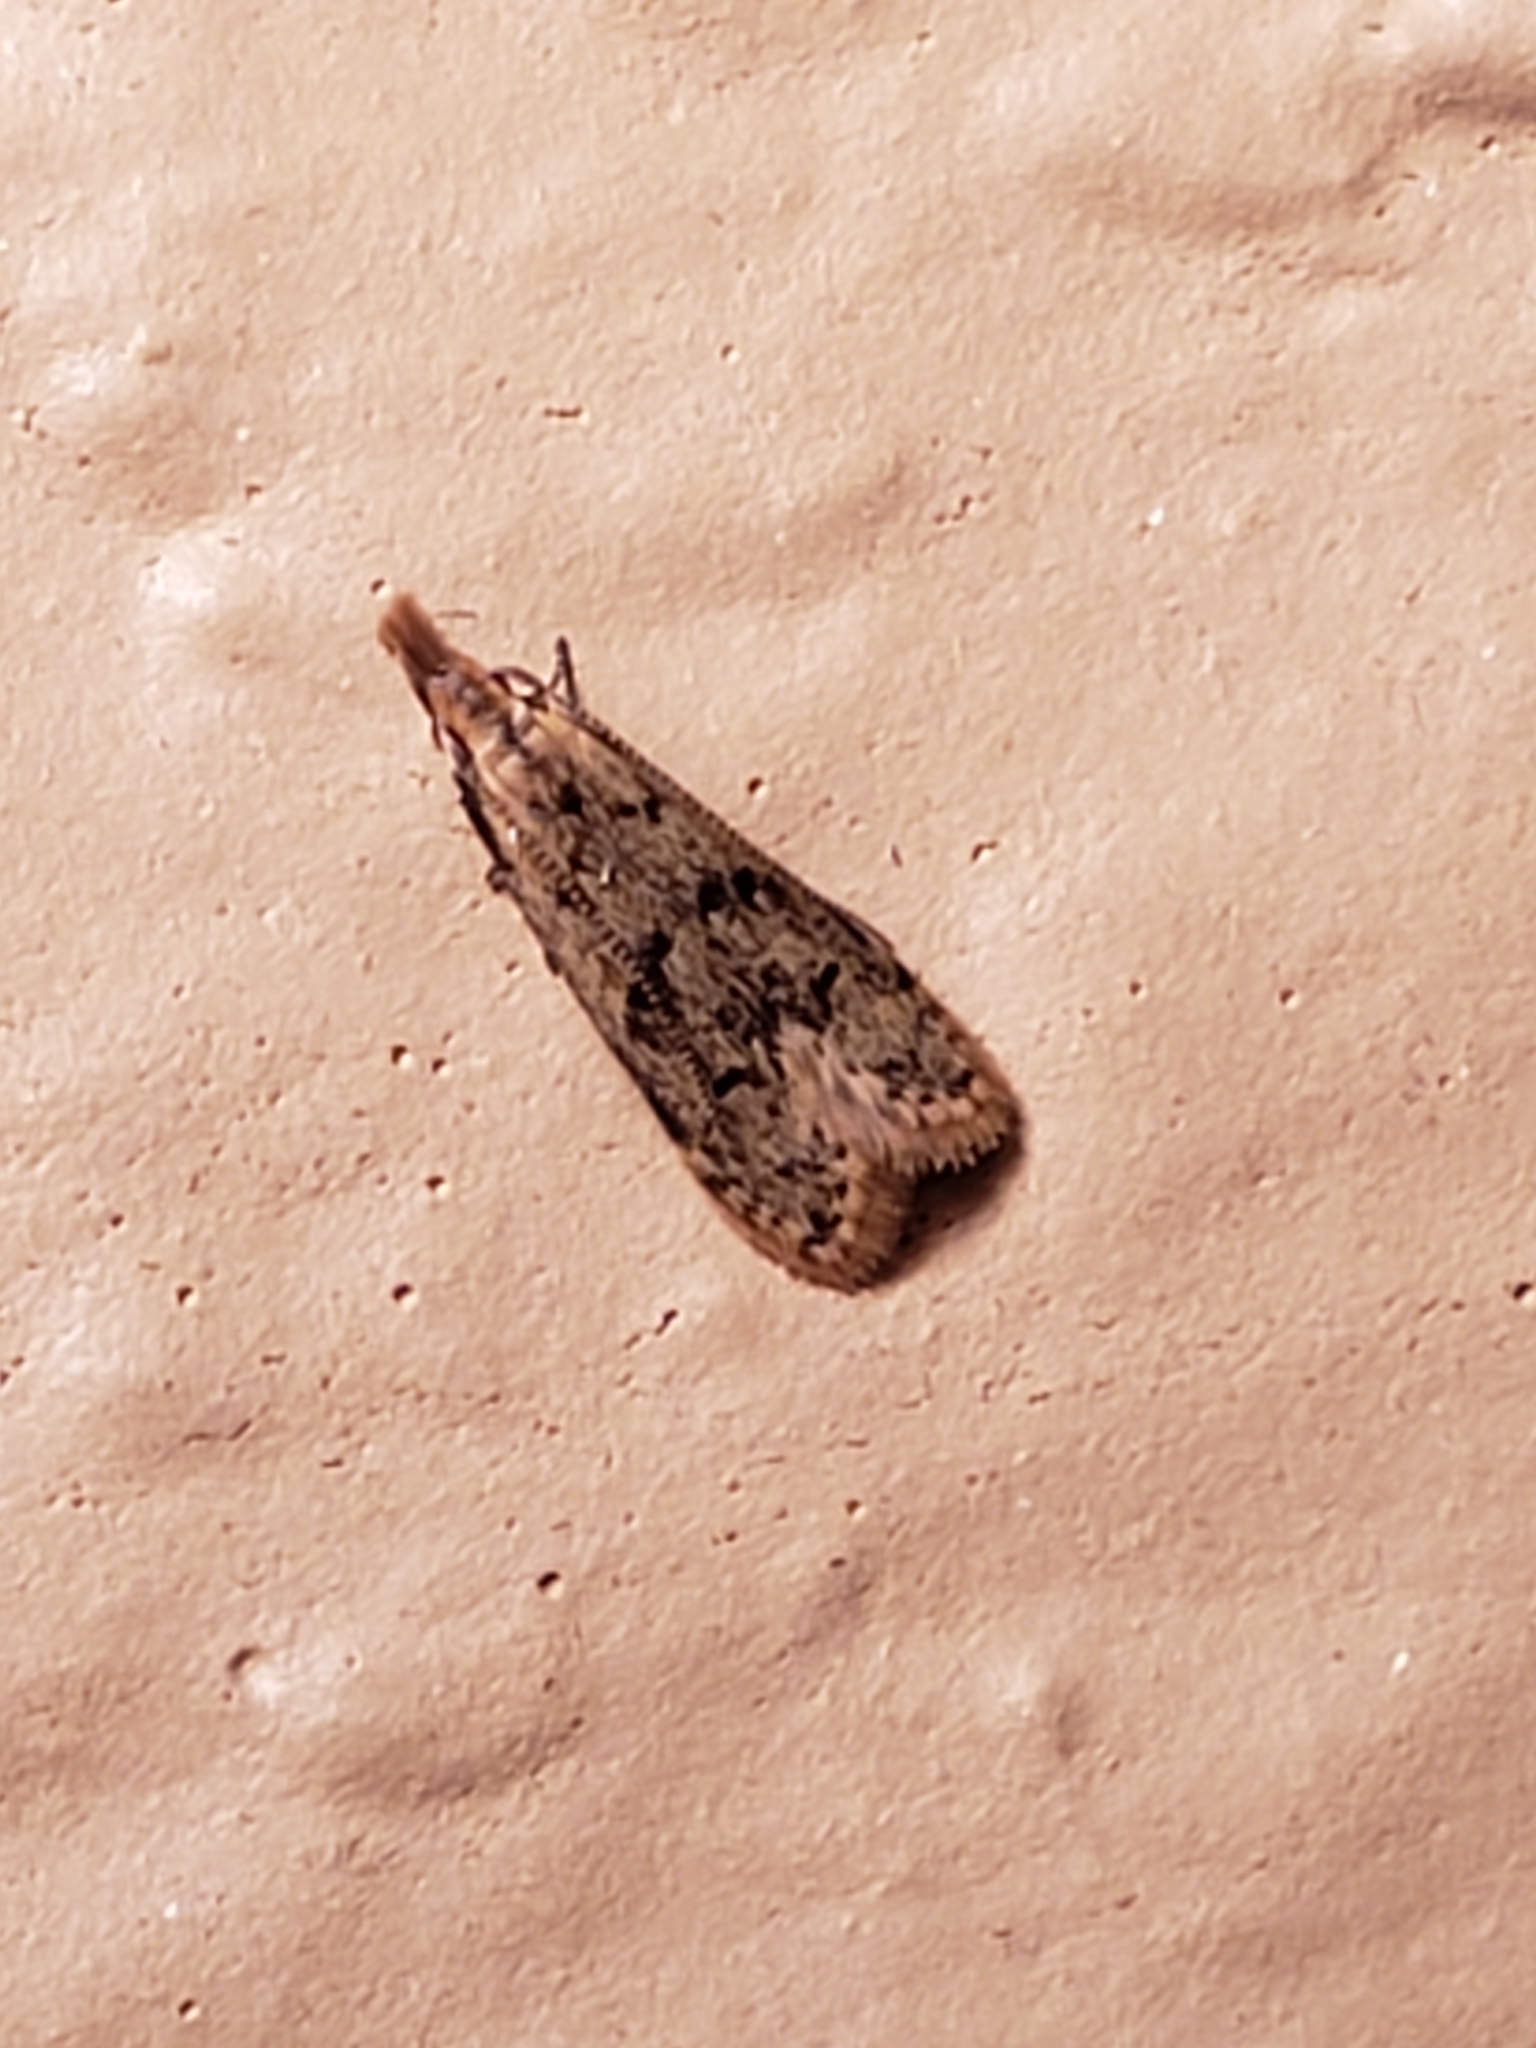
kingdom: Animalia
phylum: Arthropoda
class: Insecta
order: Lepidoptera
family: Gelechiidae
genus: Dichomeris
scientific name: Dichomeris punctipennella
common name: Many-spotted dichomeris moth
